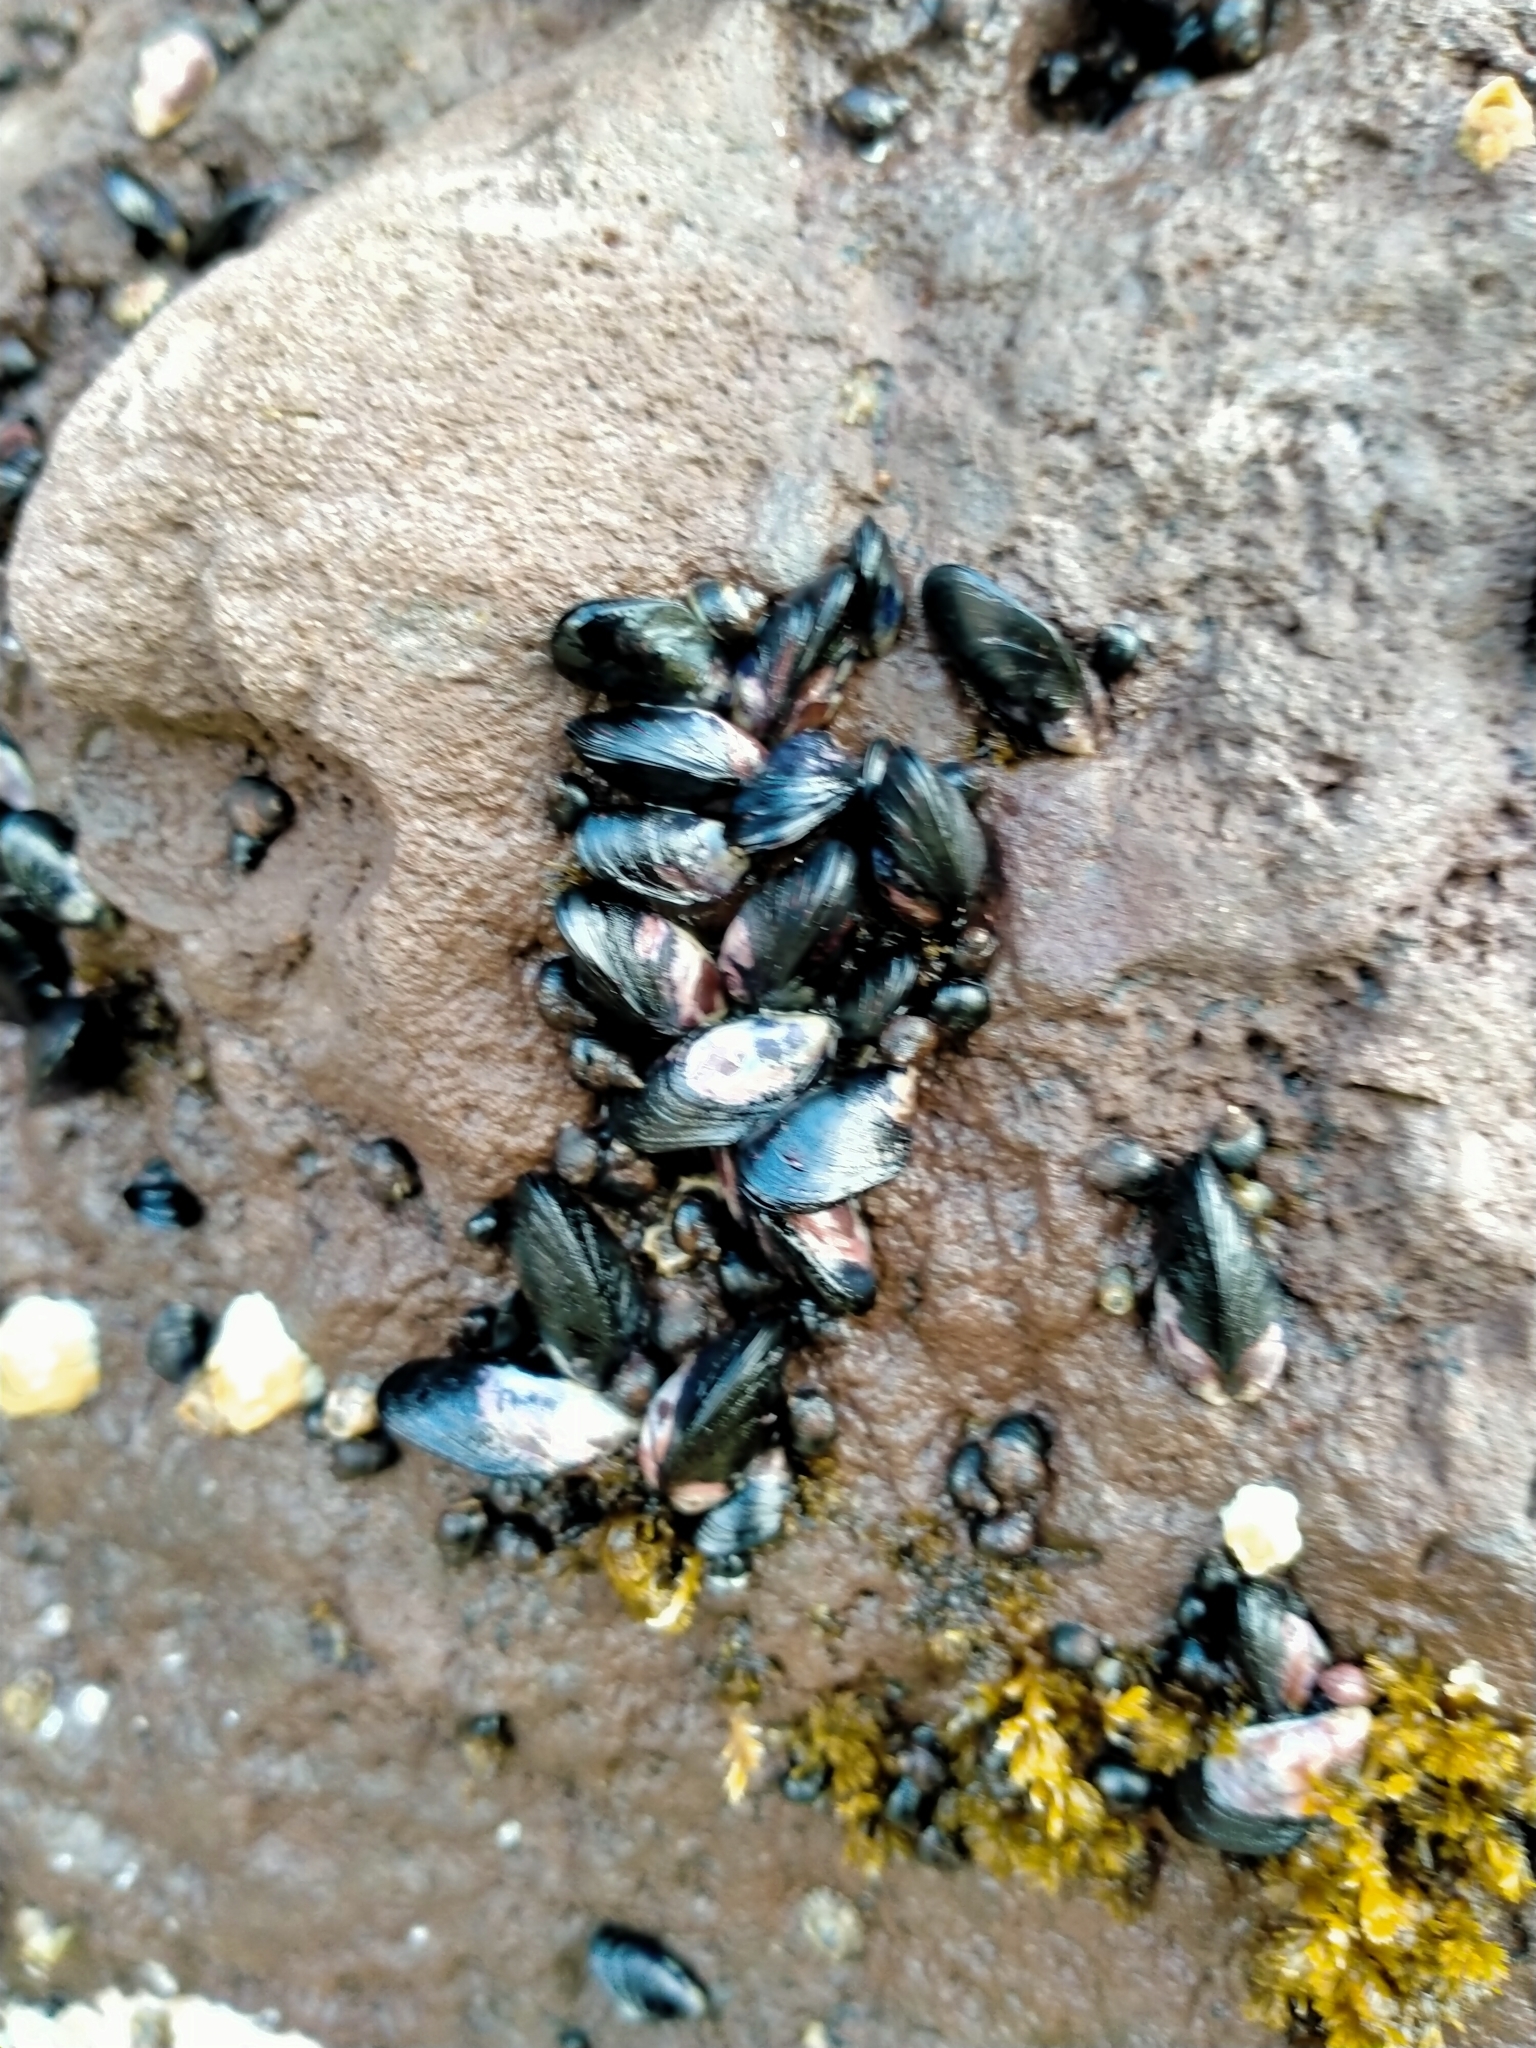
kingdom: Animalia
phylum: Mollusca
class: Bivalvia
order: Mytilida
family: Mytilidae
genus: Xenostrobus
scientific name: Xenostrobus neozelanicus
